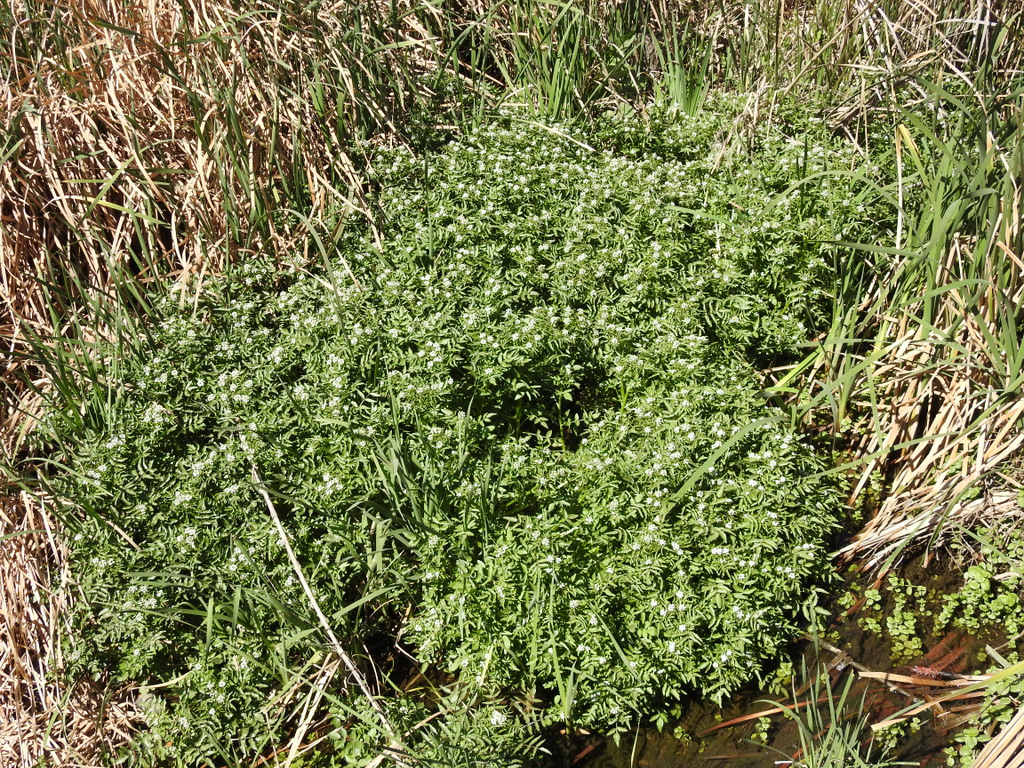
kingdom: Plantae
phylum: Tracheophyta
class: Magnoliopsida
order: Brassicales
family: Brassicaceae
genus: Nasturtium
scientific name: Nasturtium officinale
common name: Watercress
